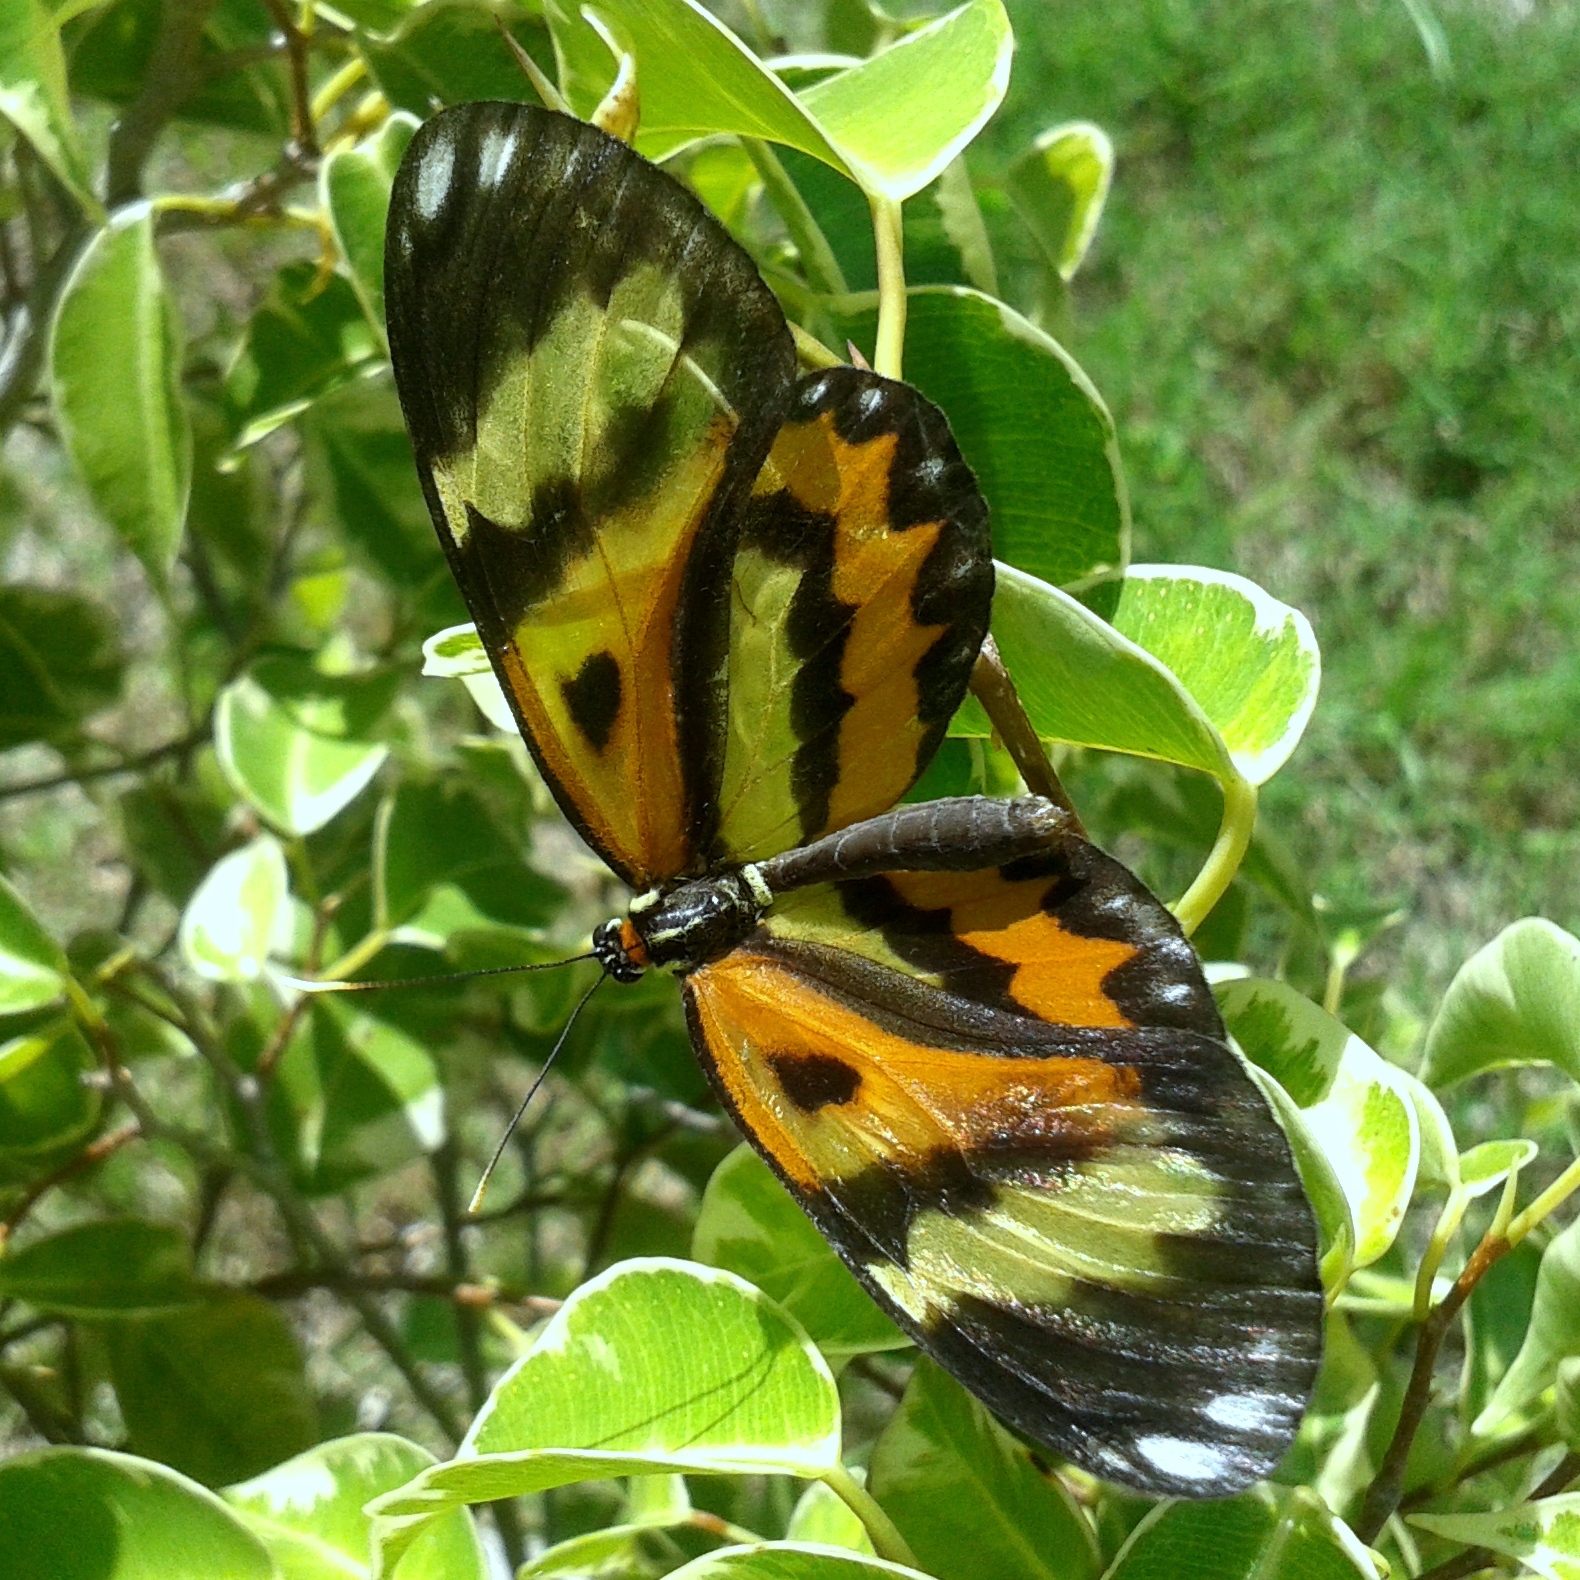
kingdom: Animalia
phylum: Arthropoda
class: Insecta
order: Lepidoptera
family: Nymphalidae
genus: Placidina
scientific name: Placidina euryanassa
